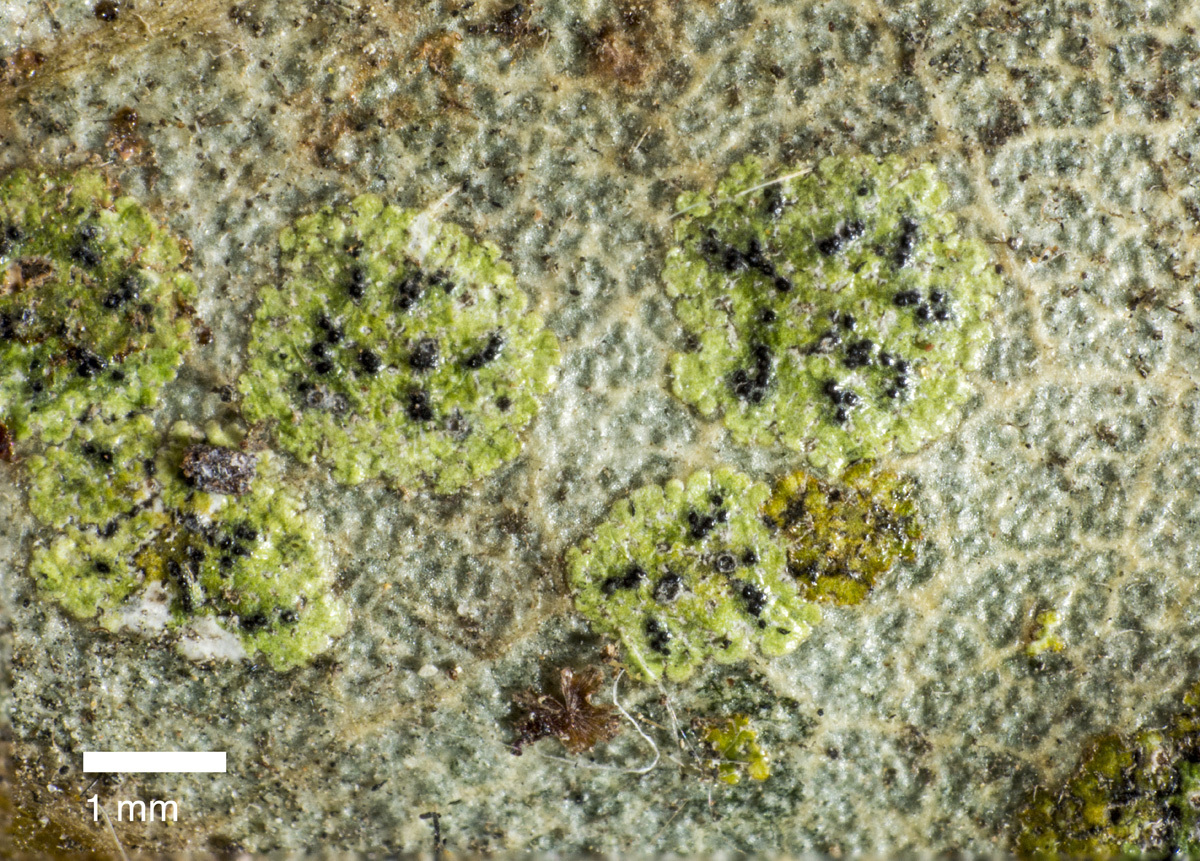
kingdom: Fungi
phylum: Ascomycota
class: Dothideomycetes
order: Strigulales
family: Strigulaceae
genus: Strigula
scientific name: Strigula novae-zelandiae
